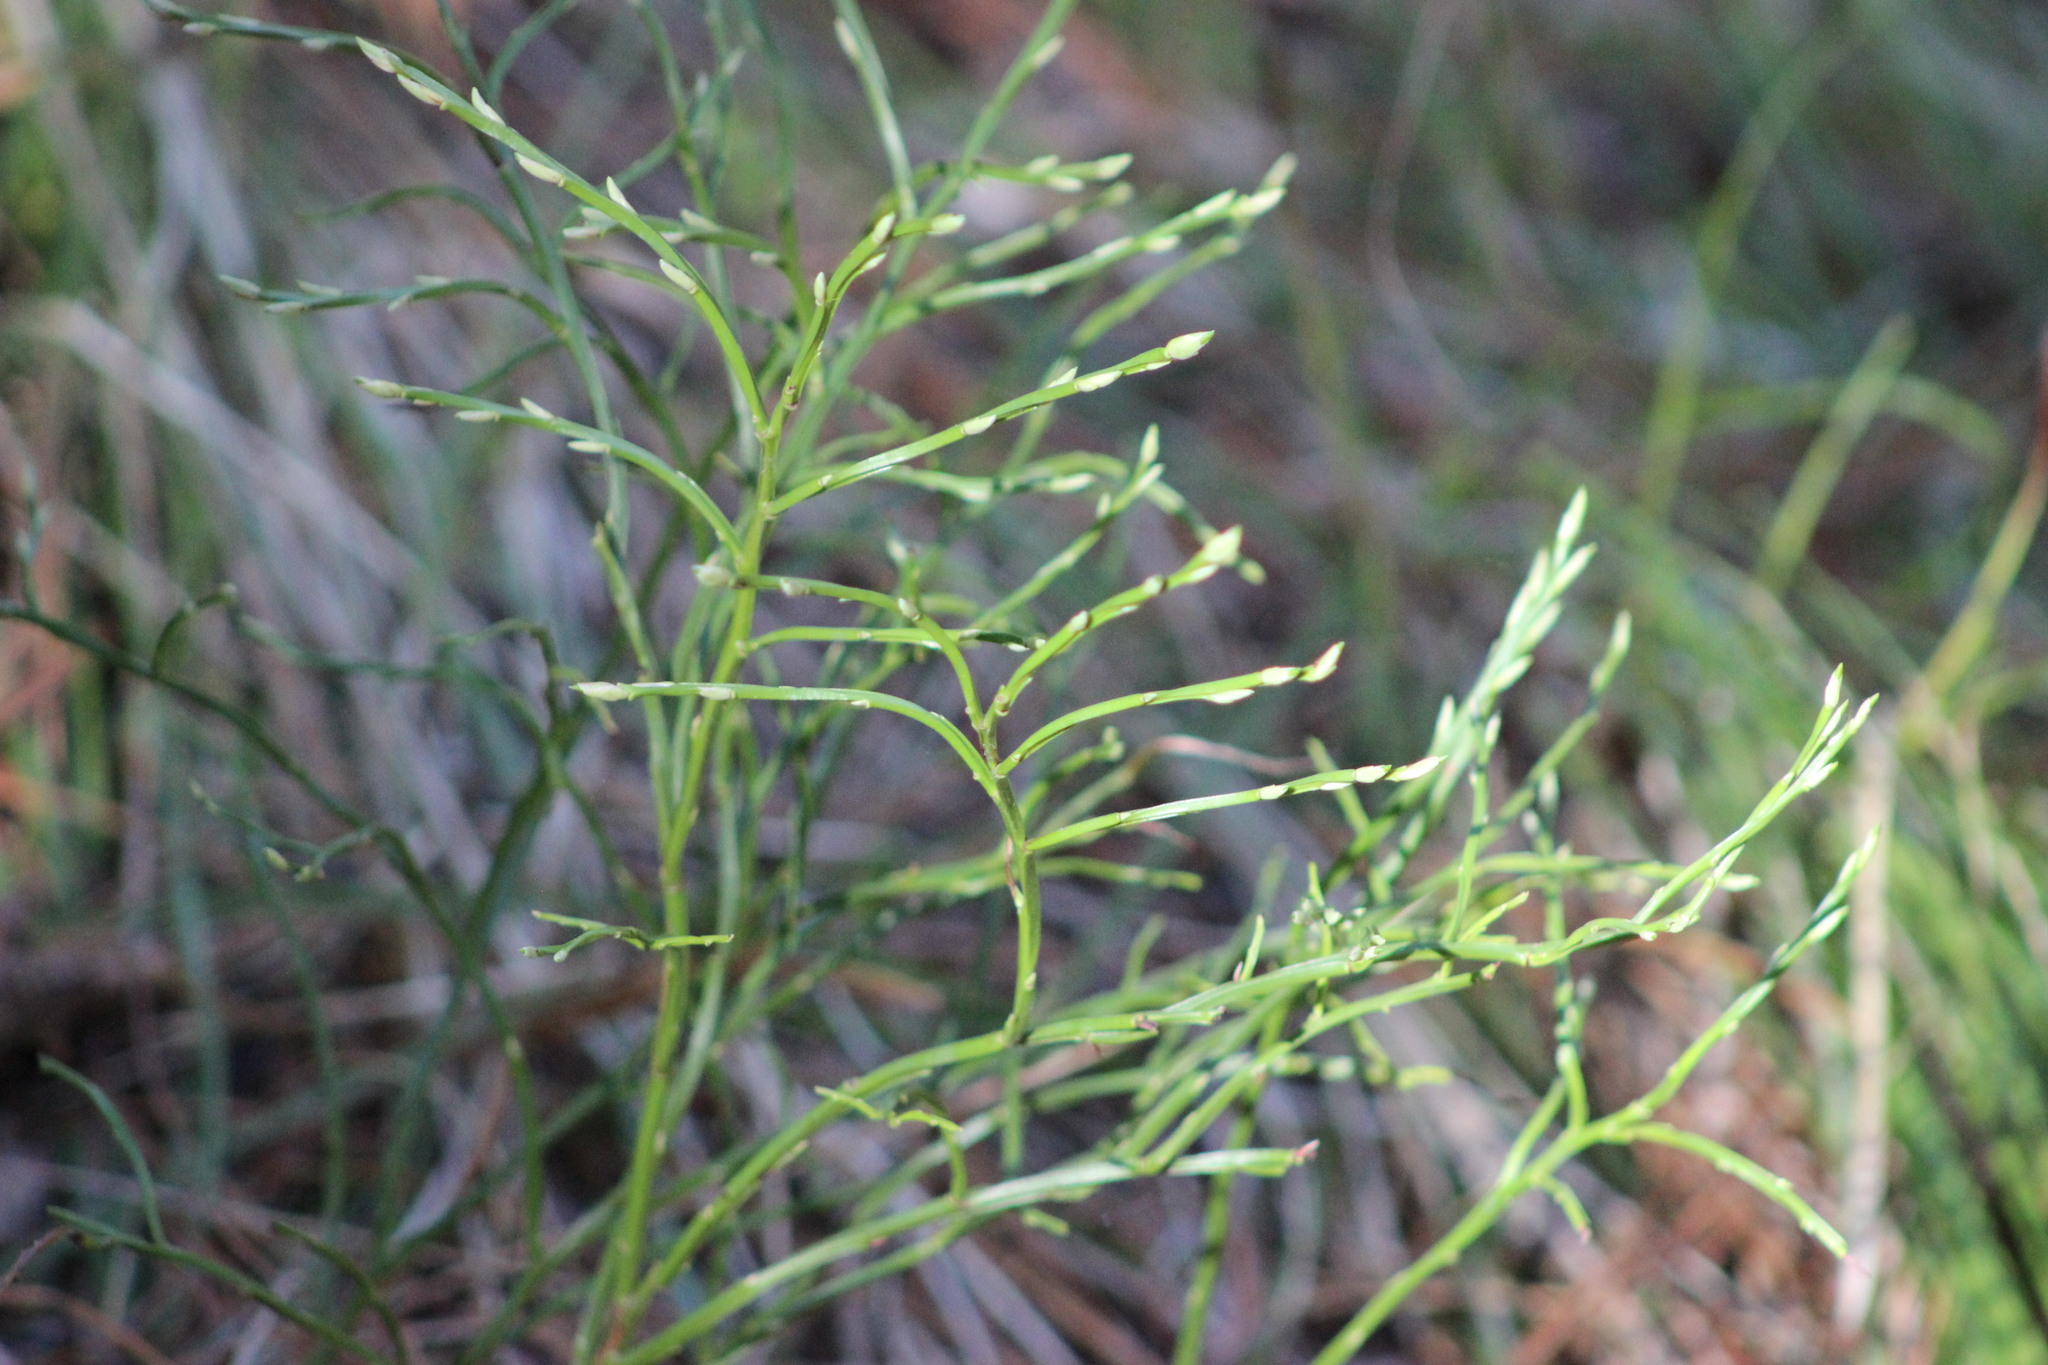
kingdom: Plantae
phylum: Tracheophyta
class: Magnoliopsida
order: Ericales
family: Ericaceae
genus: Vaccinium
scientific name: Vaccinium myrtillus
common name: Bilberry
